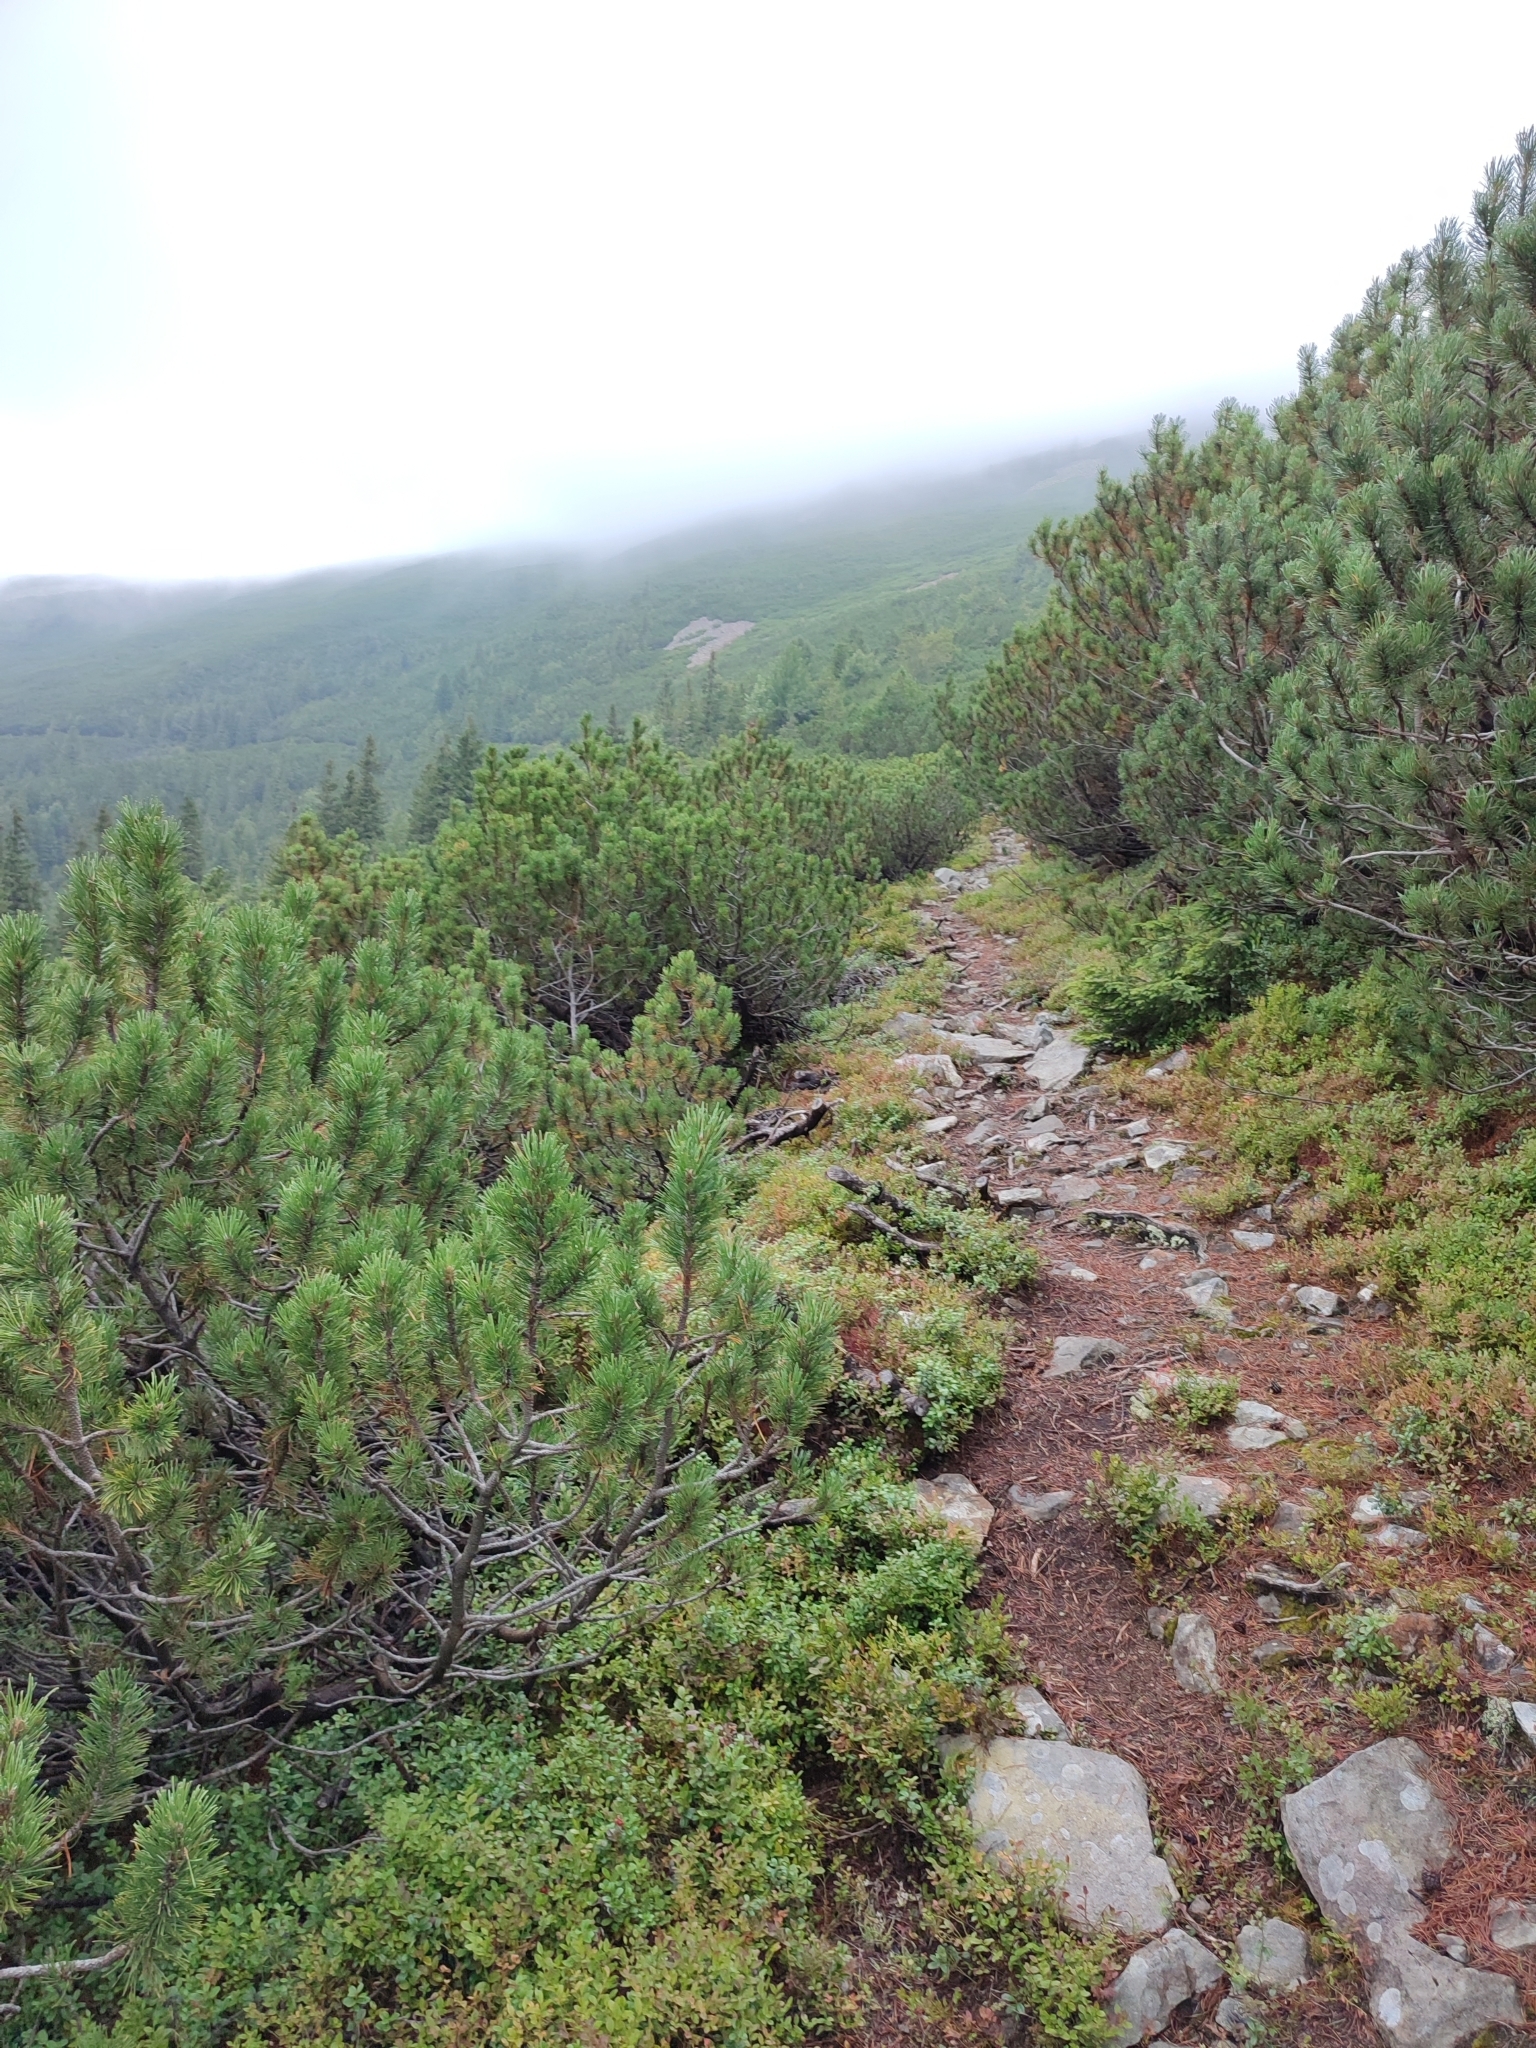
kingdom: Plantae
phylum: Tracheophyta
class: Pinopsida
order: Pinales
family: Pinaceae
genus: Pinus
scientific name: Pinus mugo
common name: Mugo pine
